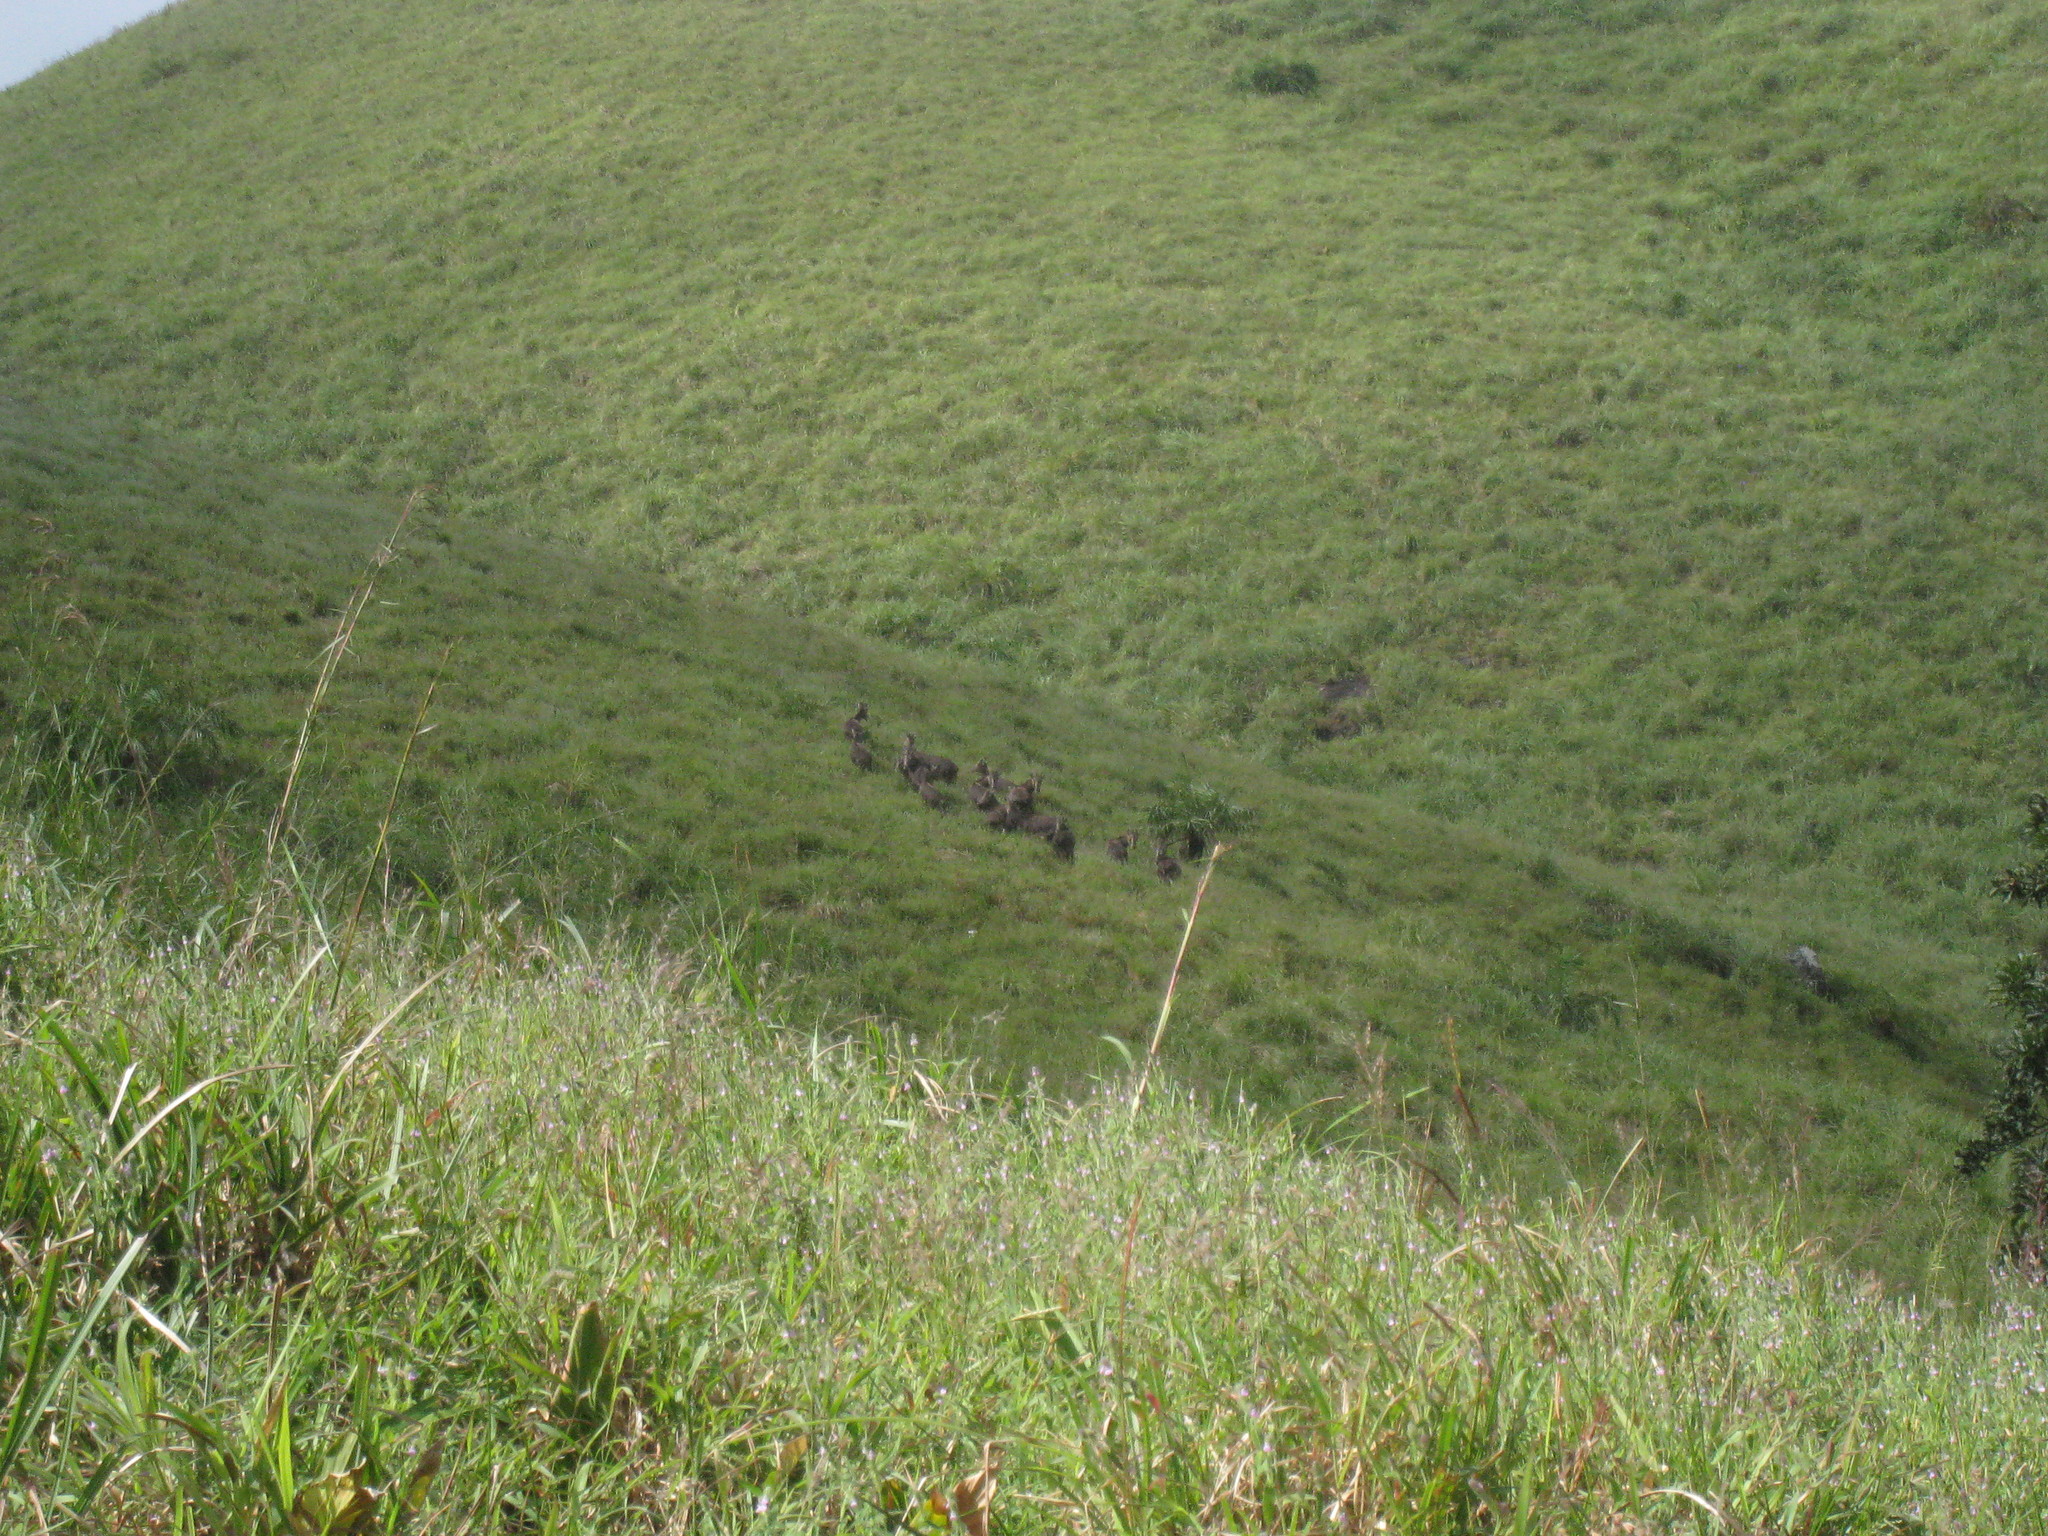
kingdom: Animalia
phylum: Chordata
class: Mammalia
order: Artiodactyla
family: Bovidae
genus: Hemitragus
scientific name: Hemitragus hylocrius
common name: Nilgiri tahr
